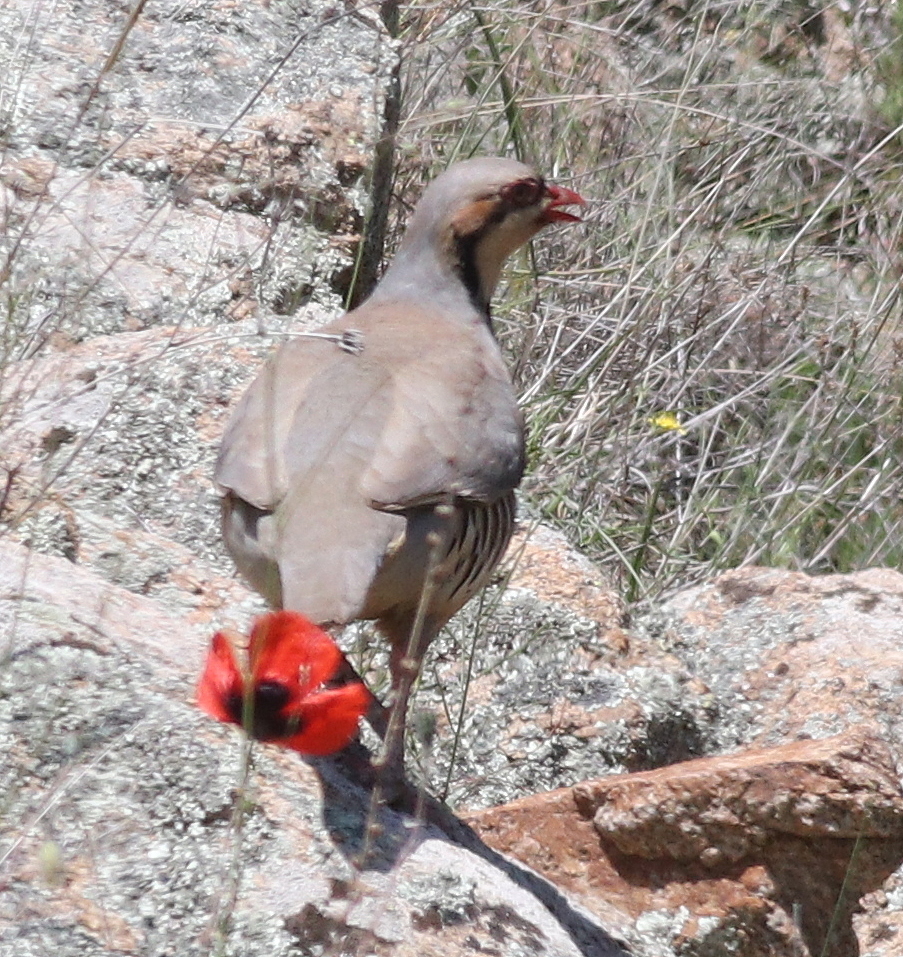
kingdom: Animalia
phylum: Chordata
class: Aves
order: Galliformes
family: Phasianidae
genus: Alectoris
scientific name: Alectoris chukar
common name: Chukar
